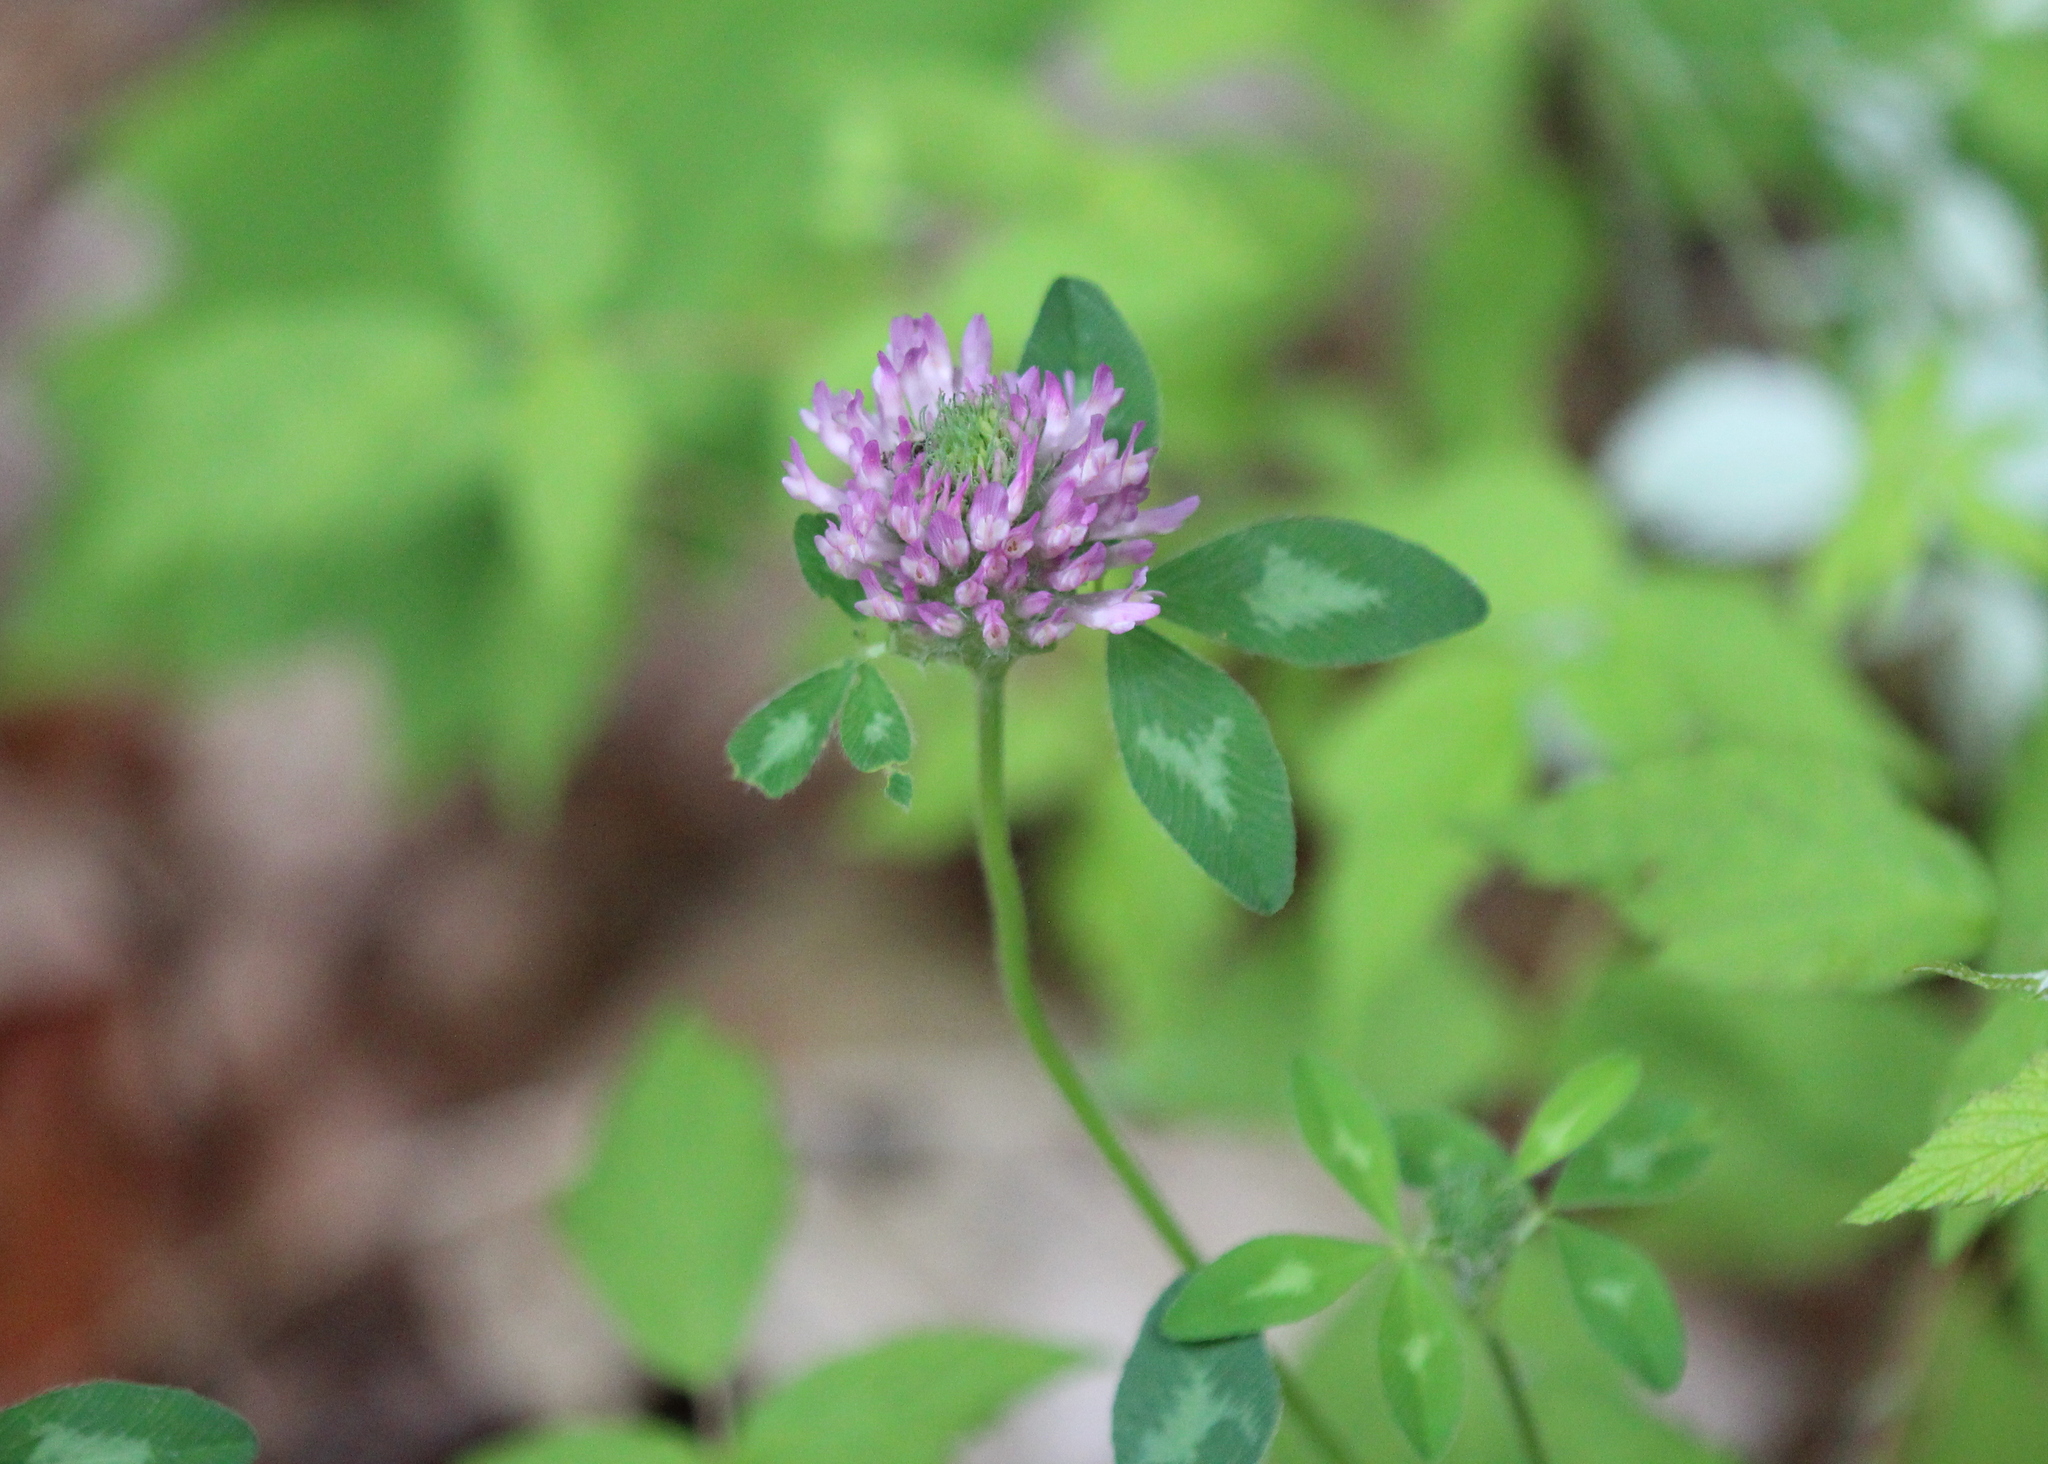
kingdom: Plantae
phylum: Tracheophyta
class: Magnoliopsida
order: Fabales
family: Fabaceae
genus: Trifolium
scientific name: Trifolium pratense
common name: Red clover
